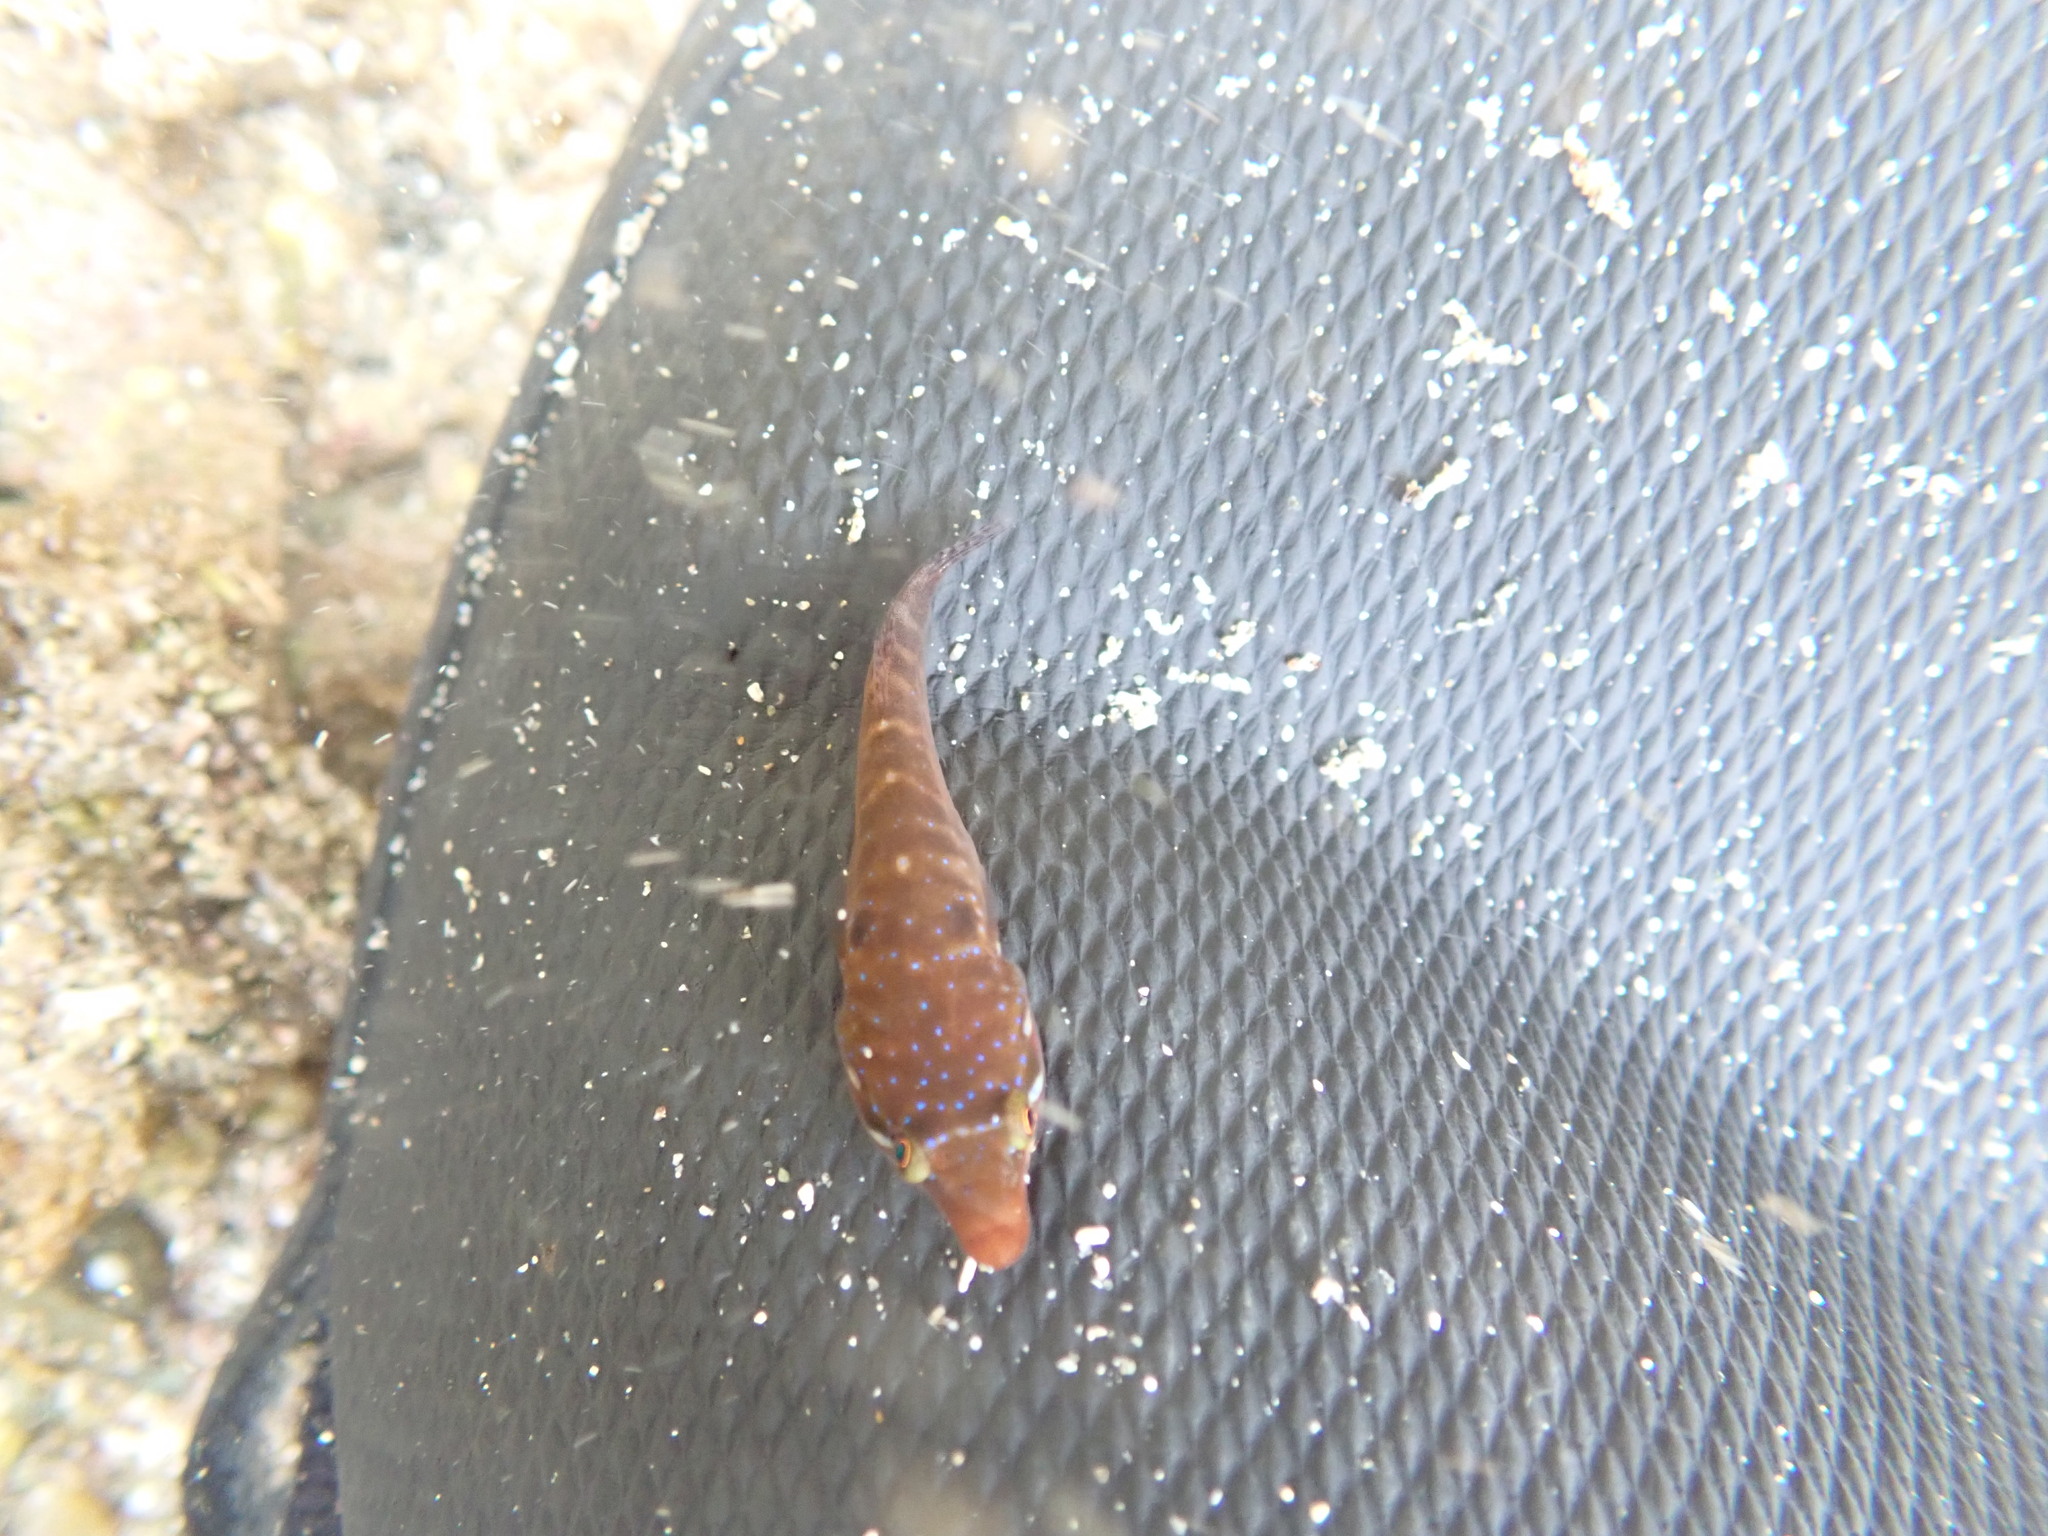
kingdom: Animalia
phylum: Chordata
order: Gobiesociformes
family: Gobiesocidae
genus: Dellichthys
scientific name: Dellichthys morelandi
